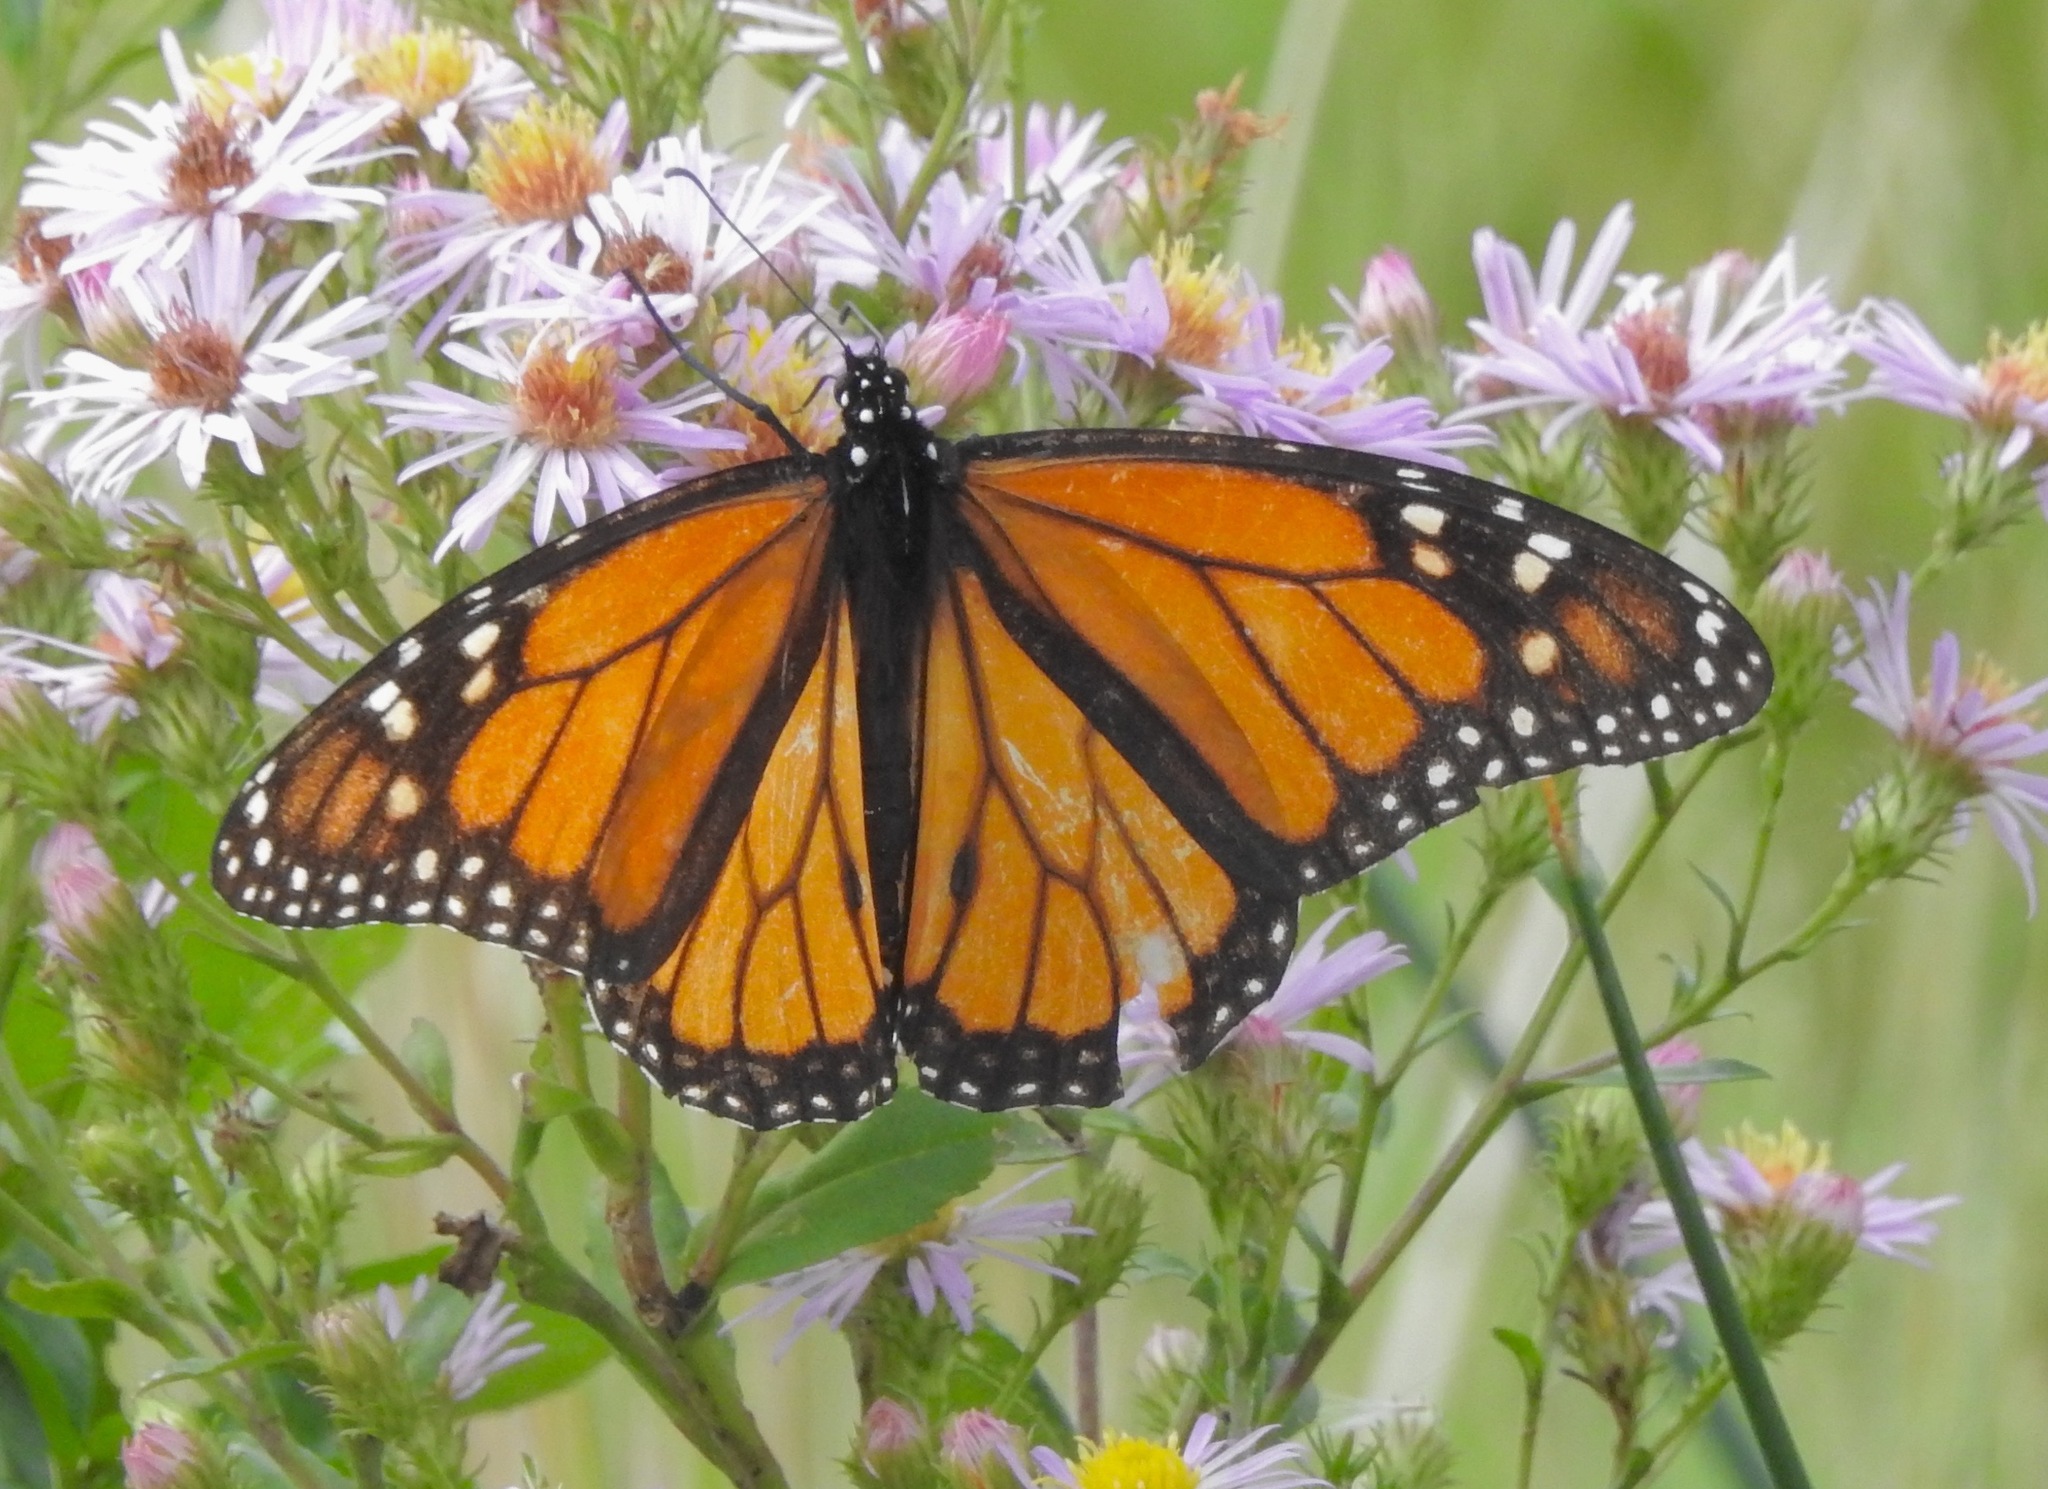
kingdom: Animalia
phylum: Arthropoda
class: Insecta
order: Lepidoptera
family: Nymphalidae
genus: Danaus
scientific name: Danaus plexippus
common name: Monarch
